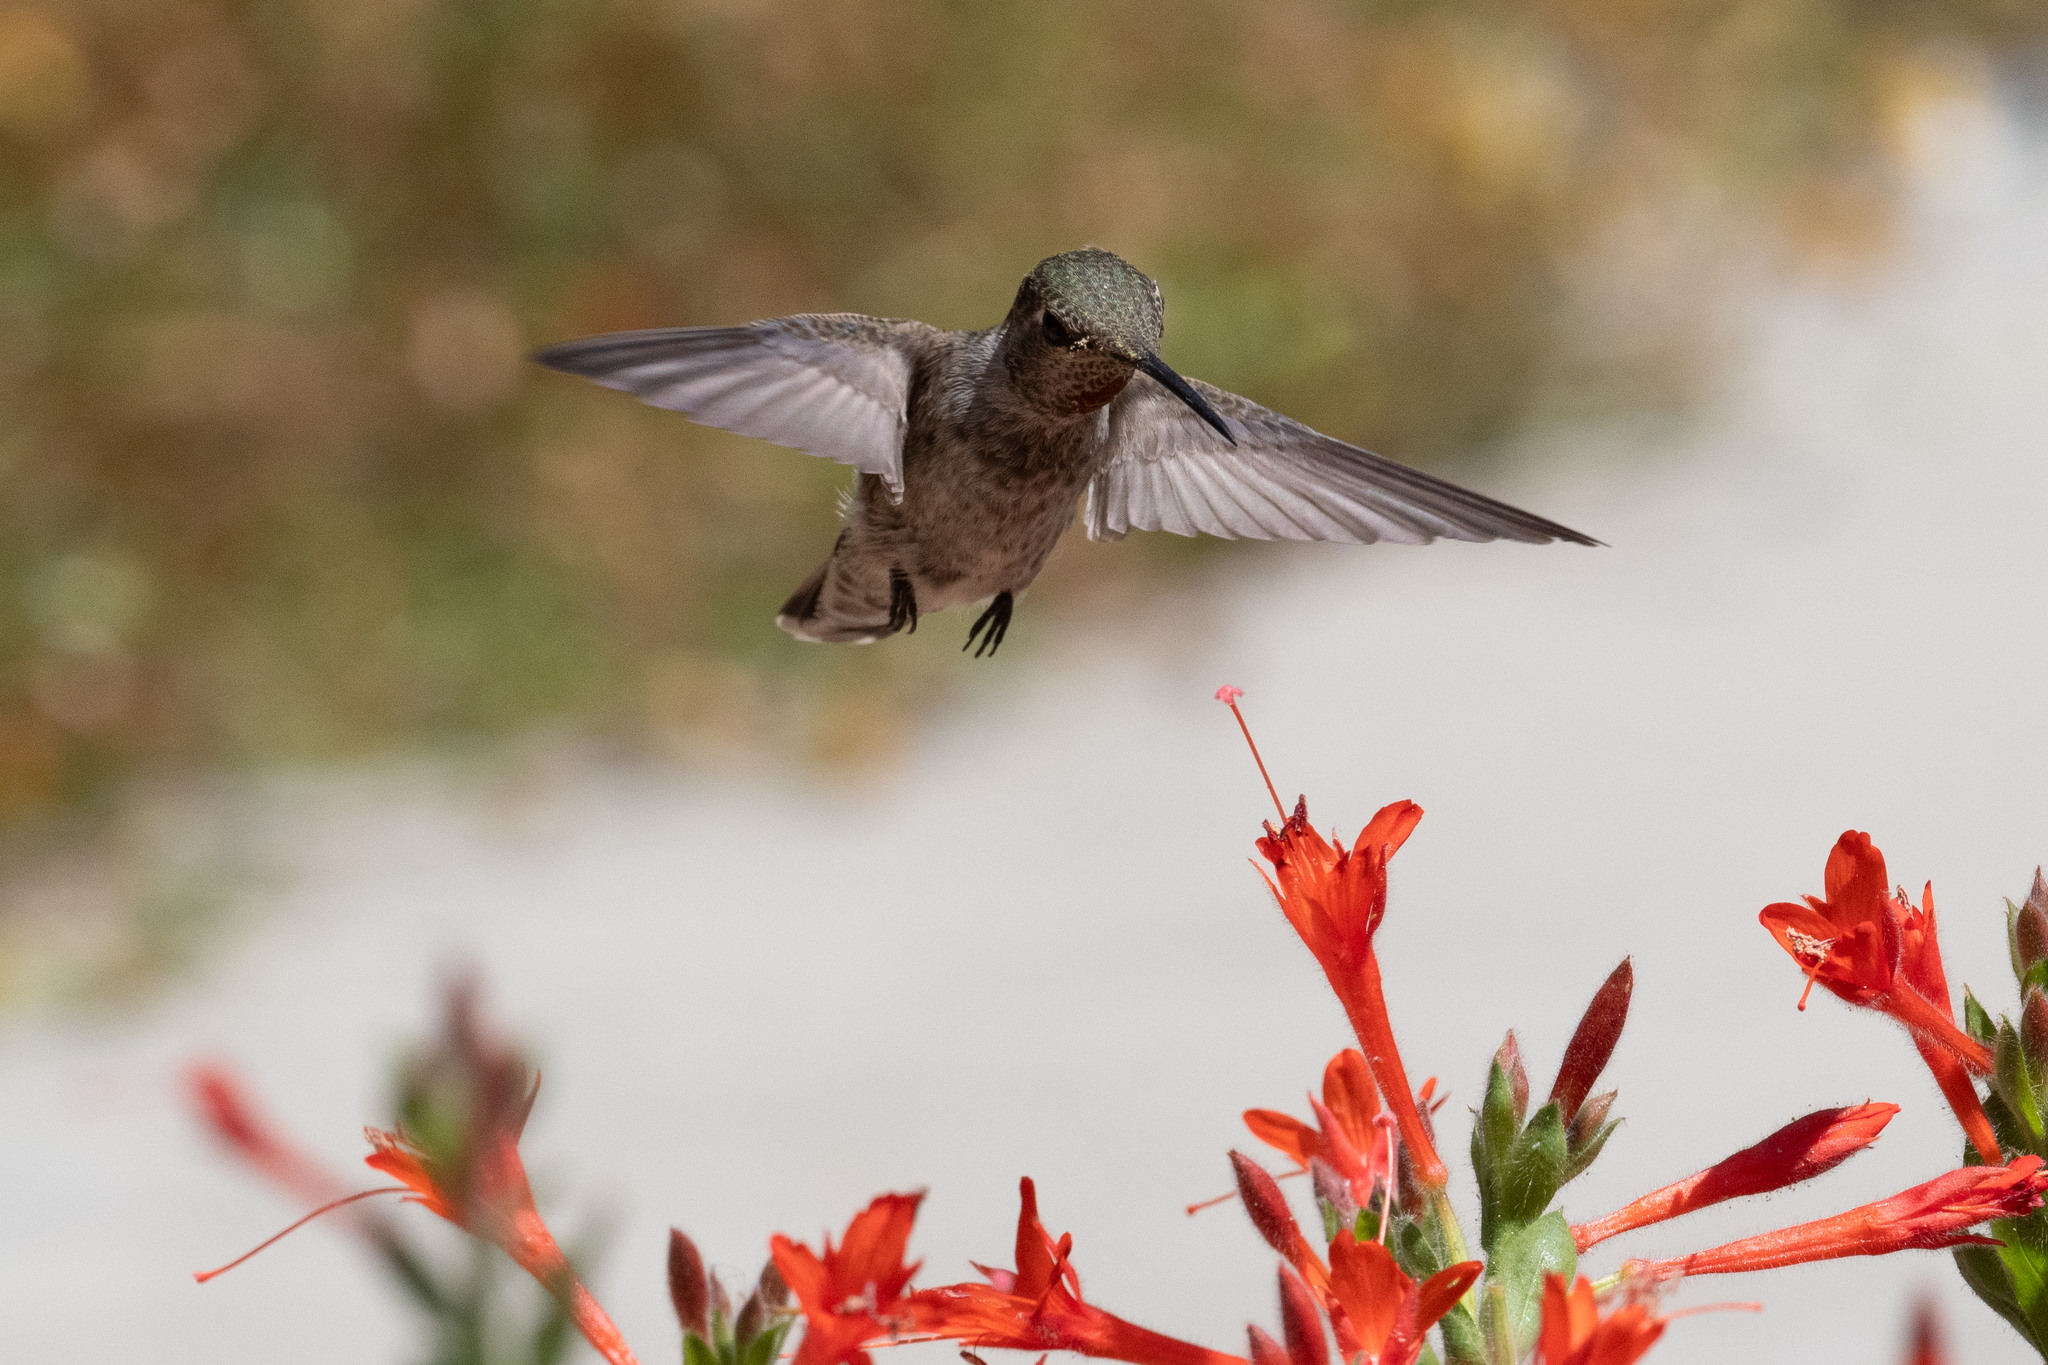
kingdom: Animalia
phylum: Chordata
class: Aves
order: Apodiformes
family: Trochilidae
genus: Calypte
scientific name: Calypte anna
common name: Anna's hummingbird
